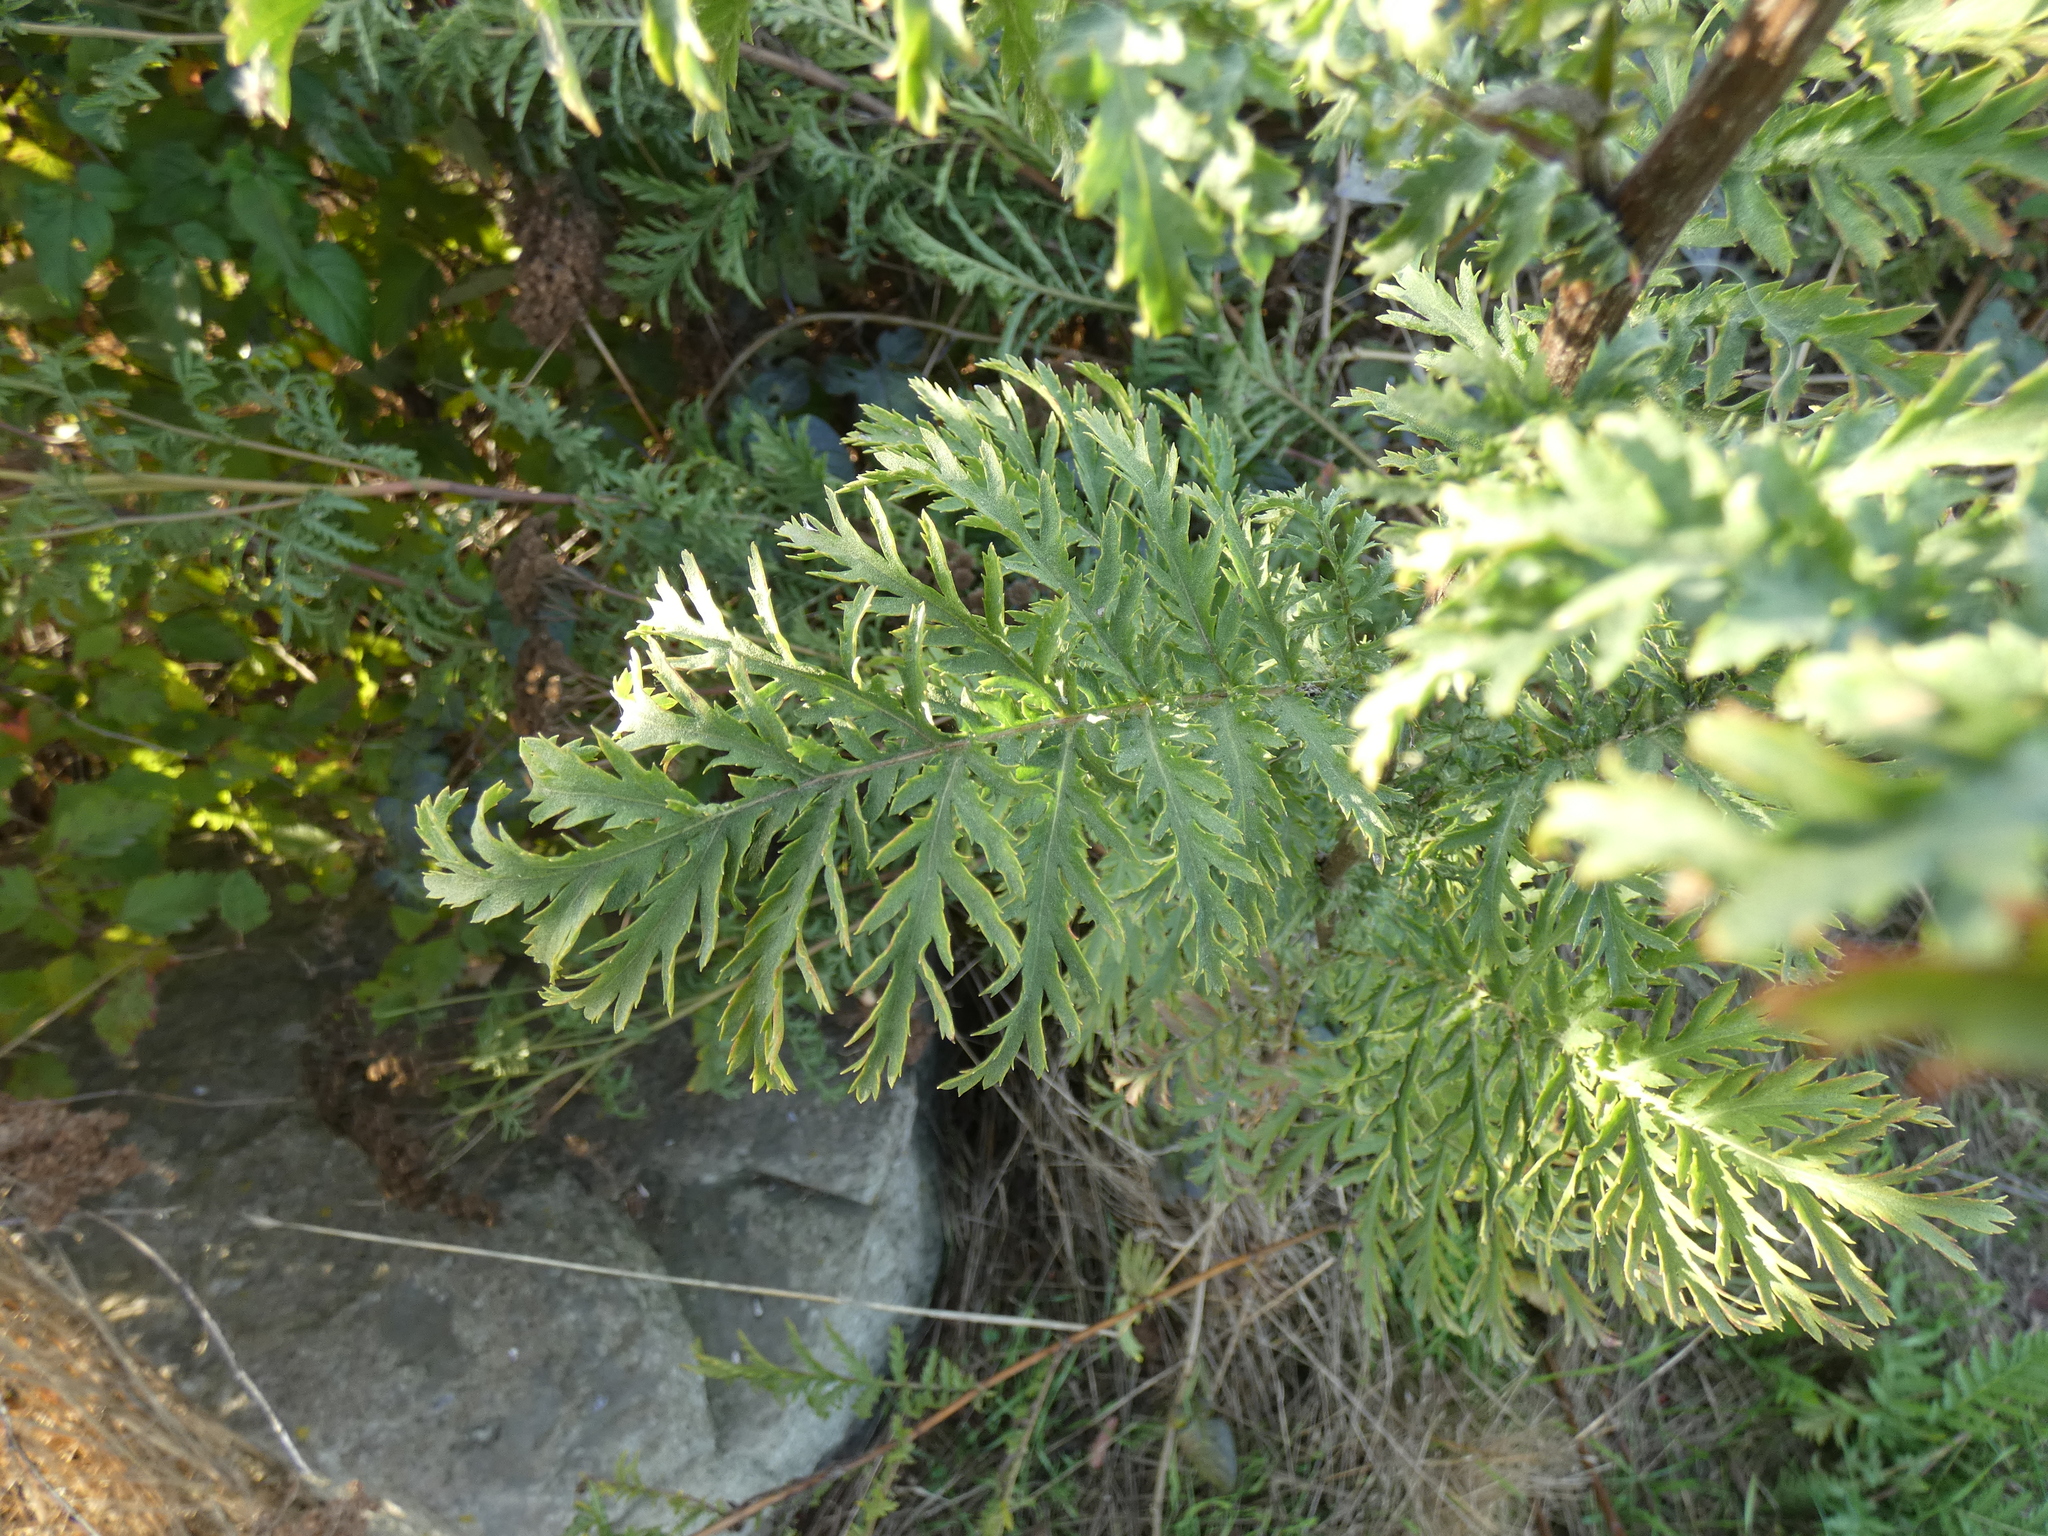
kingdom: Plantae
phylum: Tracheophyta
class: Magnoliopsida
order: Asterales
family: Asteraceae
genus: Tanacetum
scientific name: Tanacetum vulgare
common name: Common tansy
